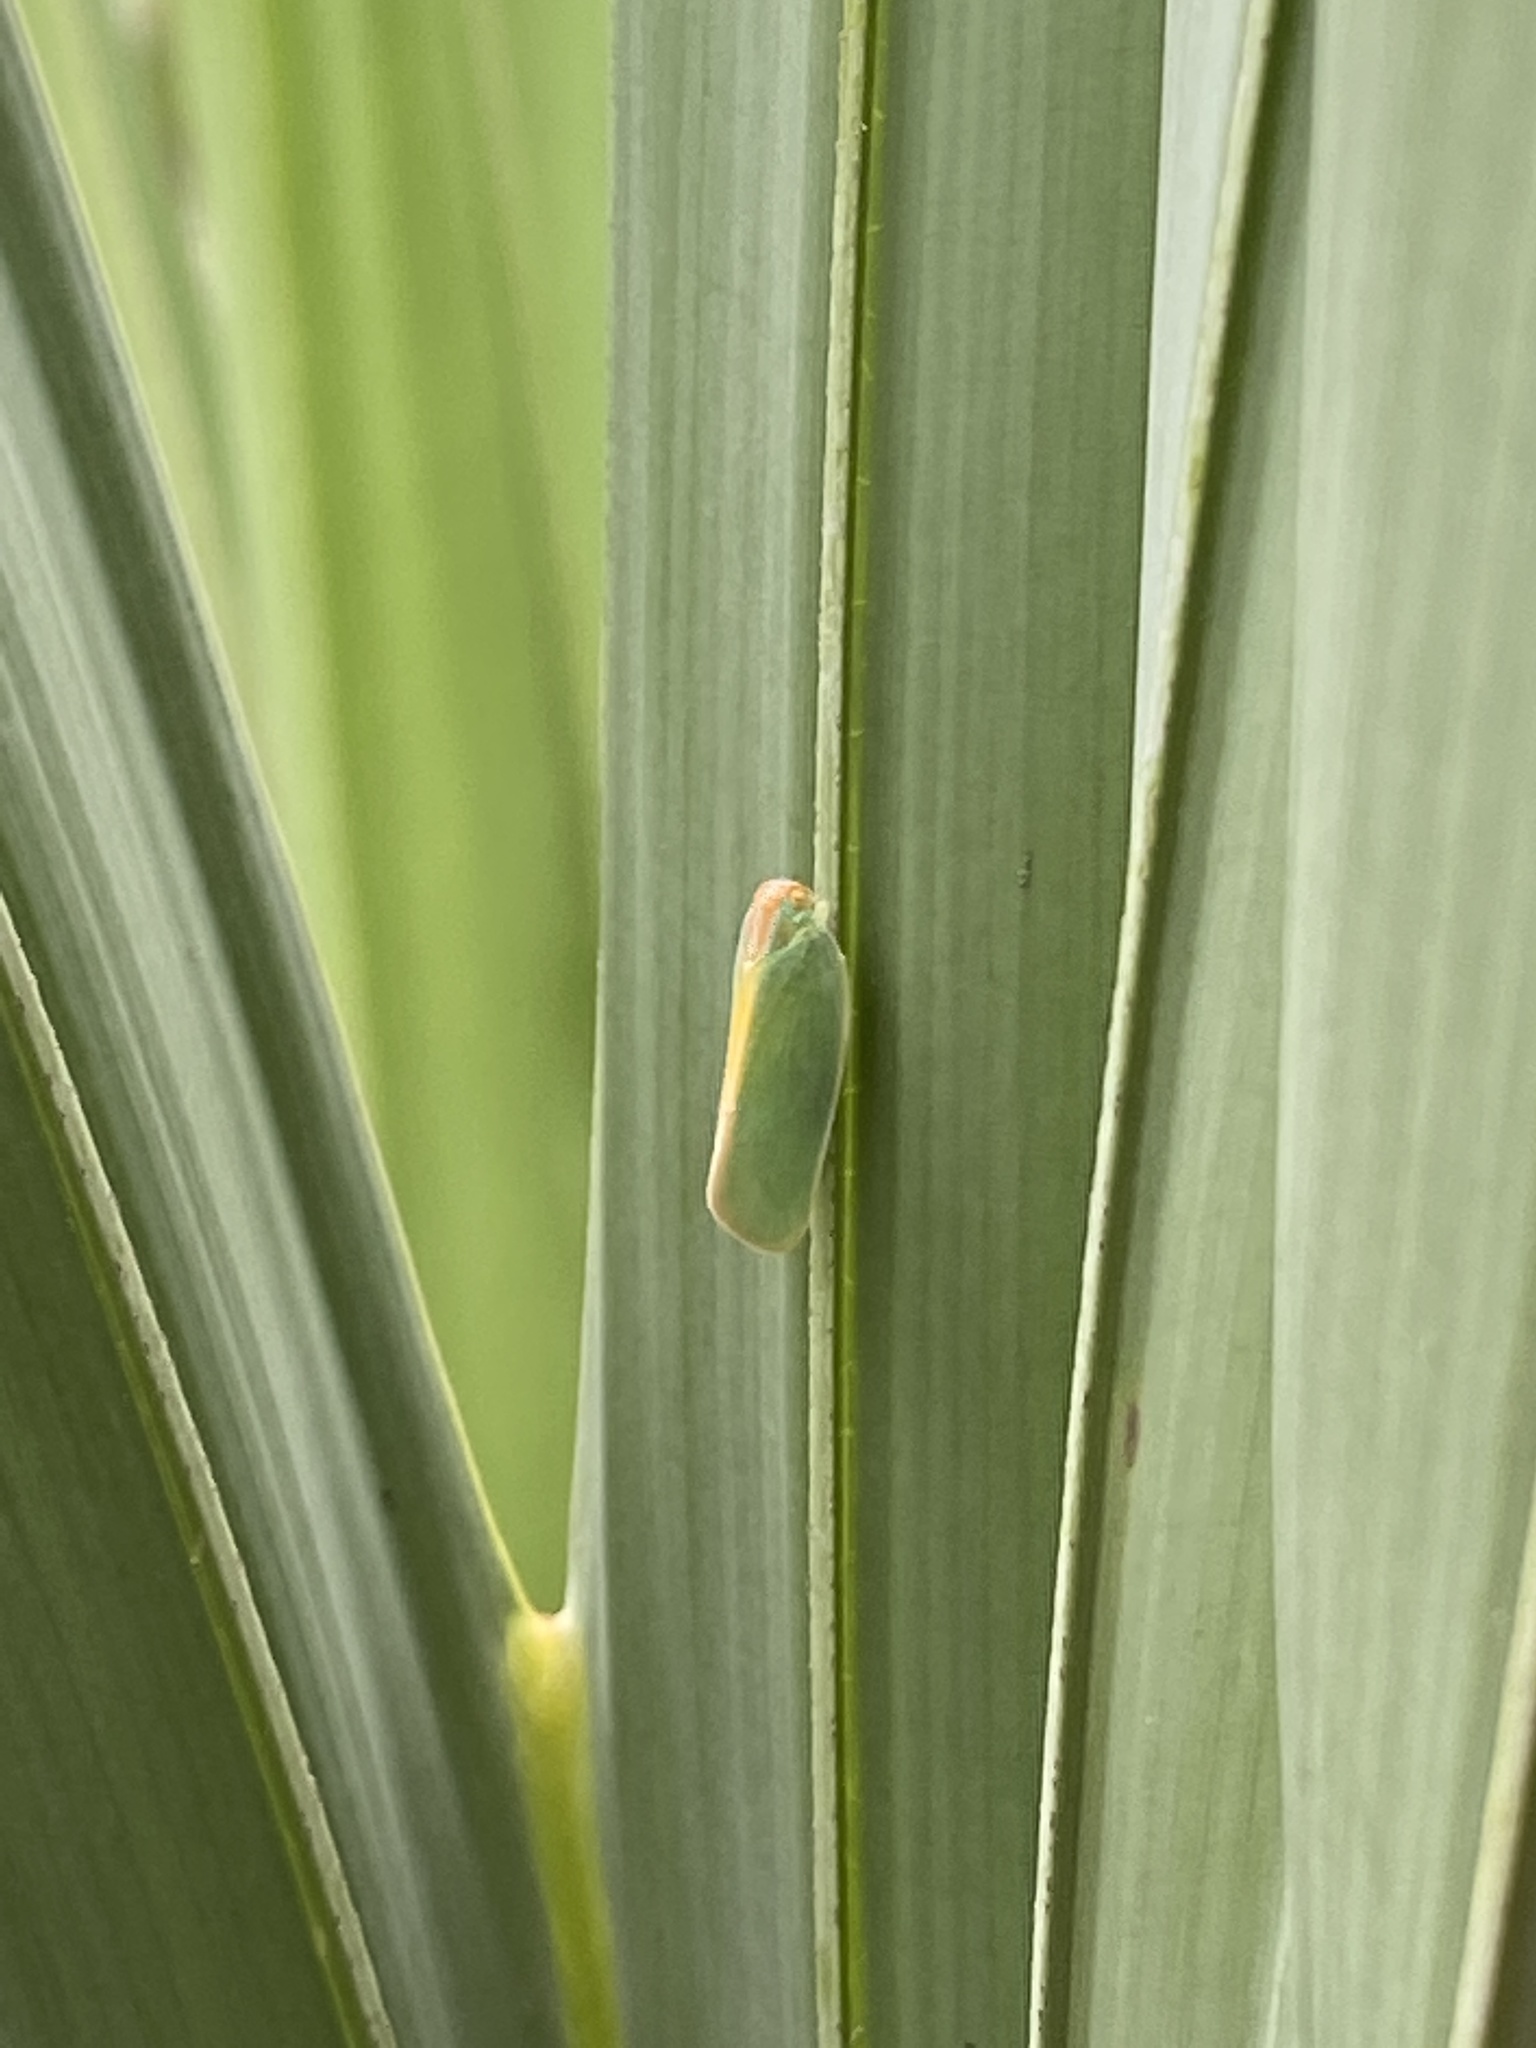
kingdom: Animalia
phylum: Arthropoda
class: Insecta
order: Hemiptera
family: Flatidae
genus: Ormenaria
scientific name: Ormenaria rufifascia
